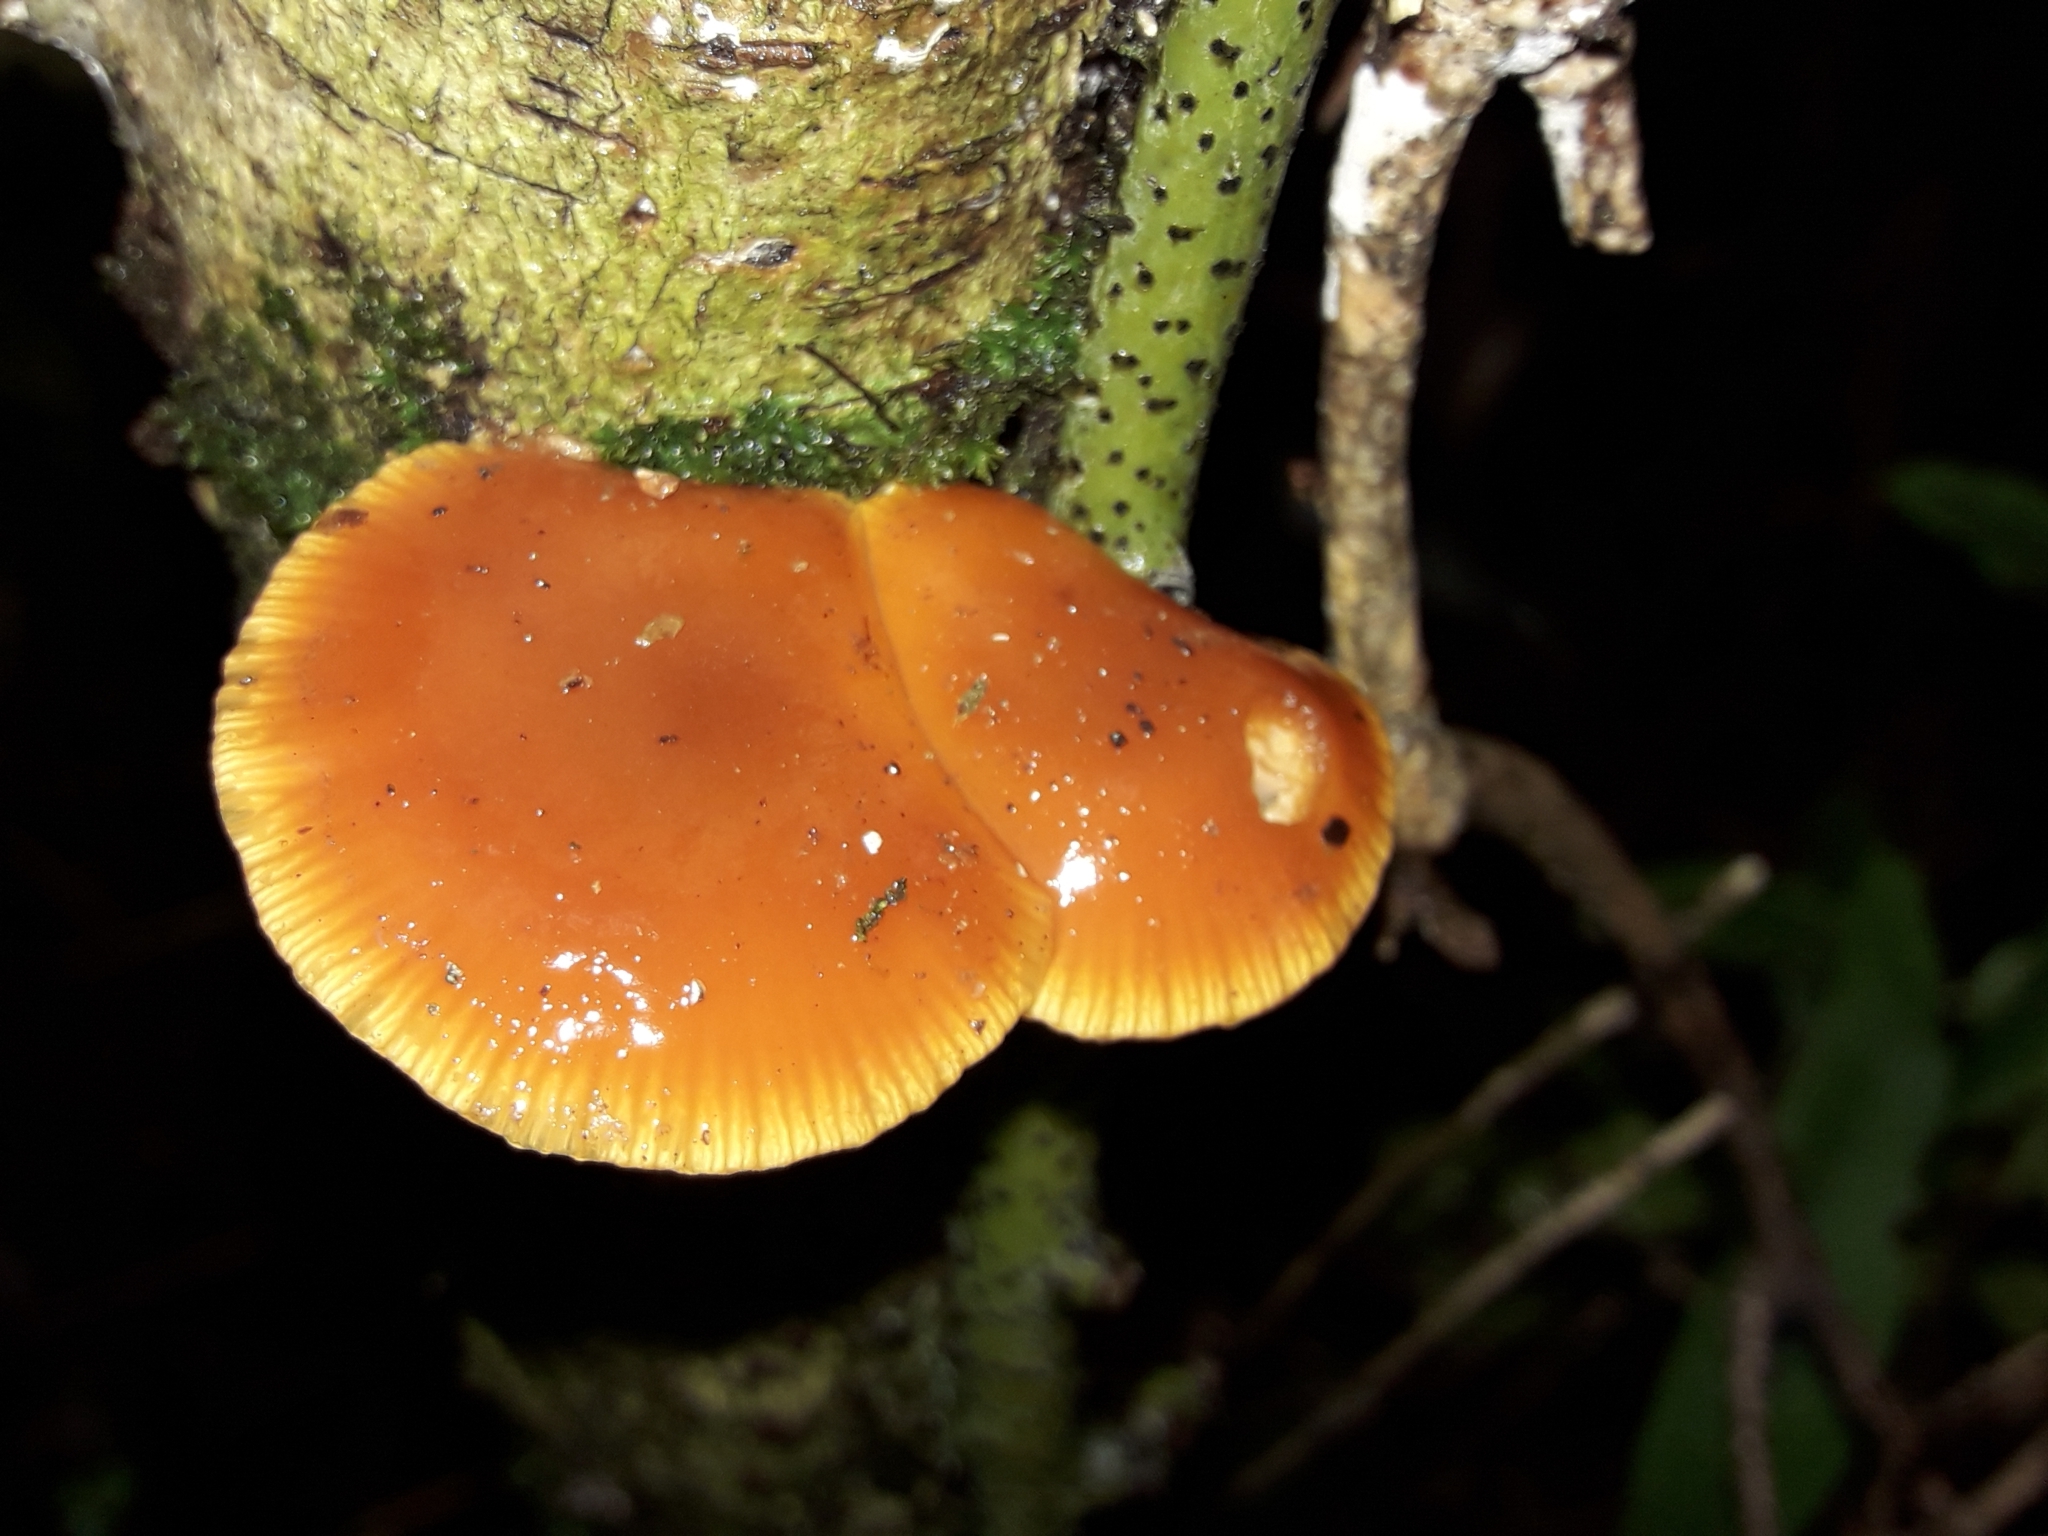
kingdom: Fungi
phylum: Basidiomycota
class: Agaricomycetes
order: Agaricales
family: Physalacriaceae
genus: Flammulina
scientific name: Flammulina velutipes
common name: Velvet shank
